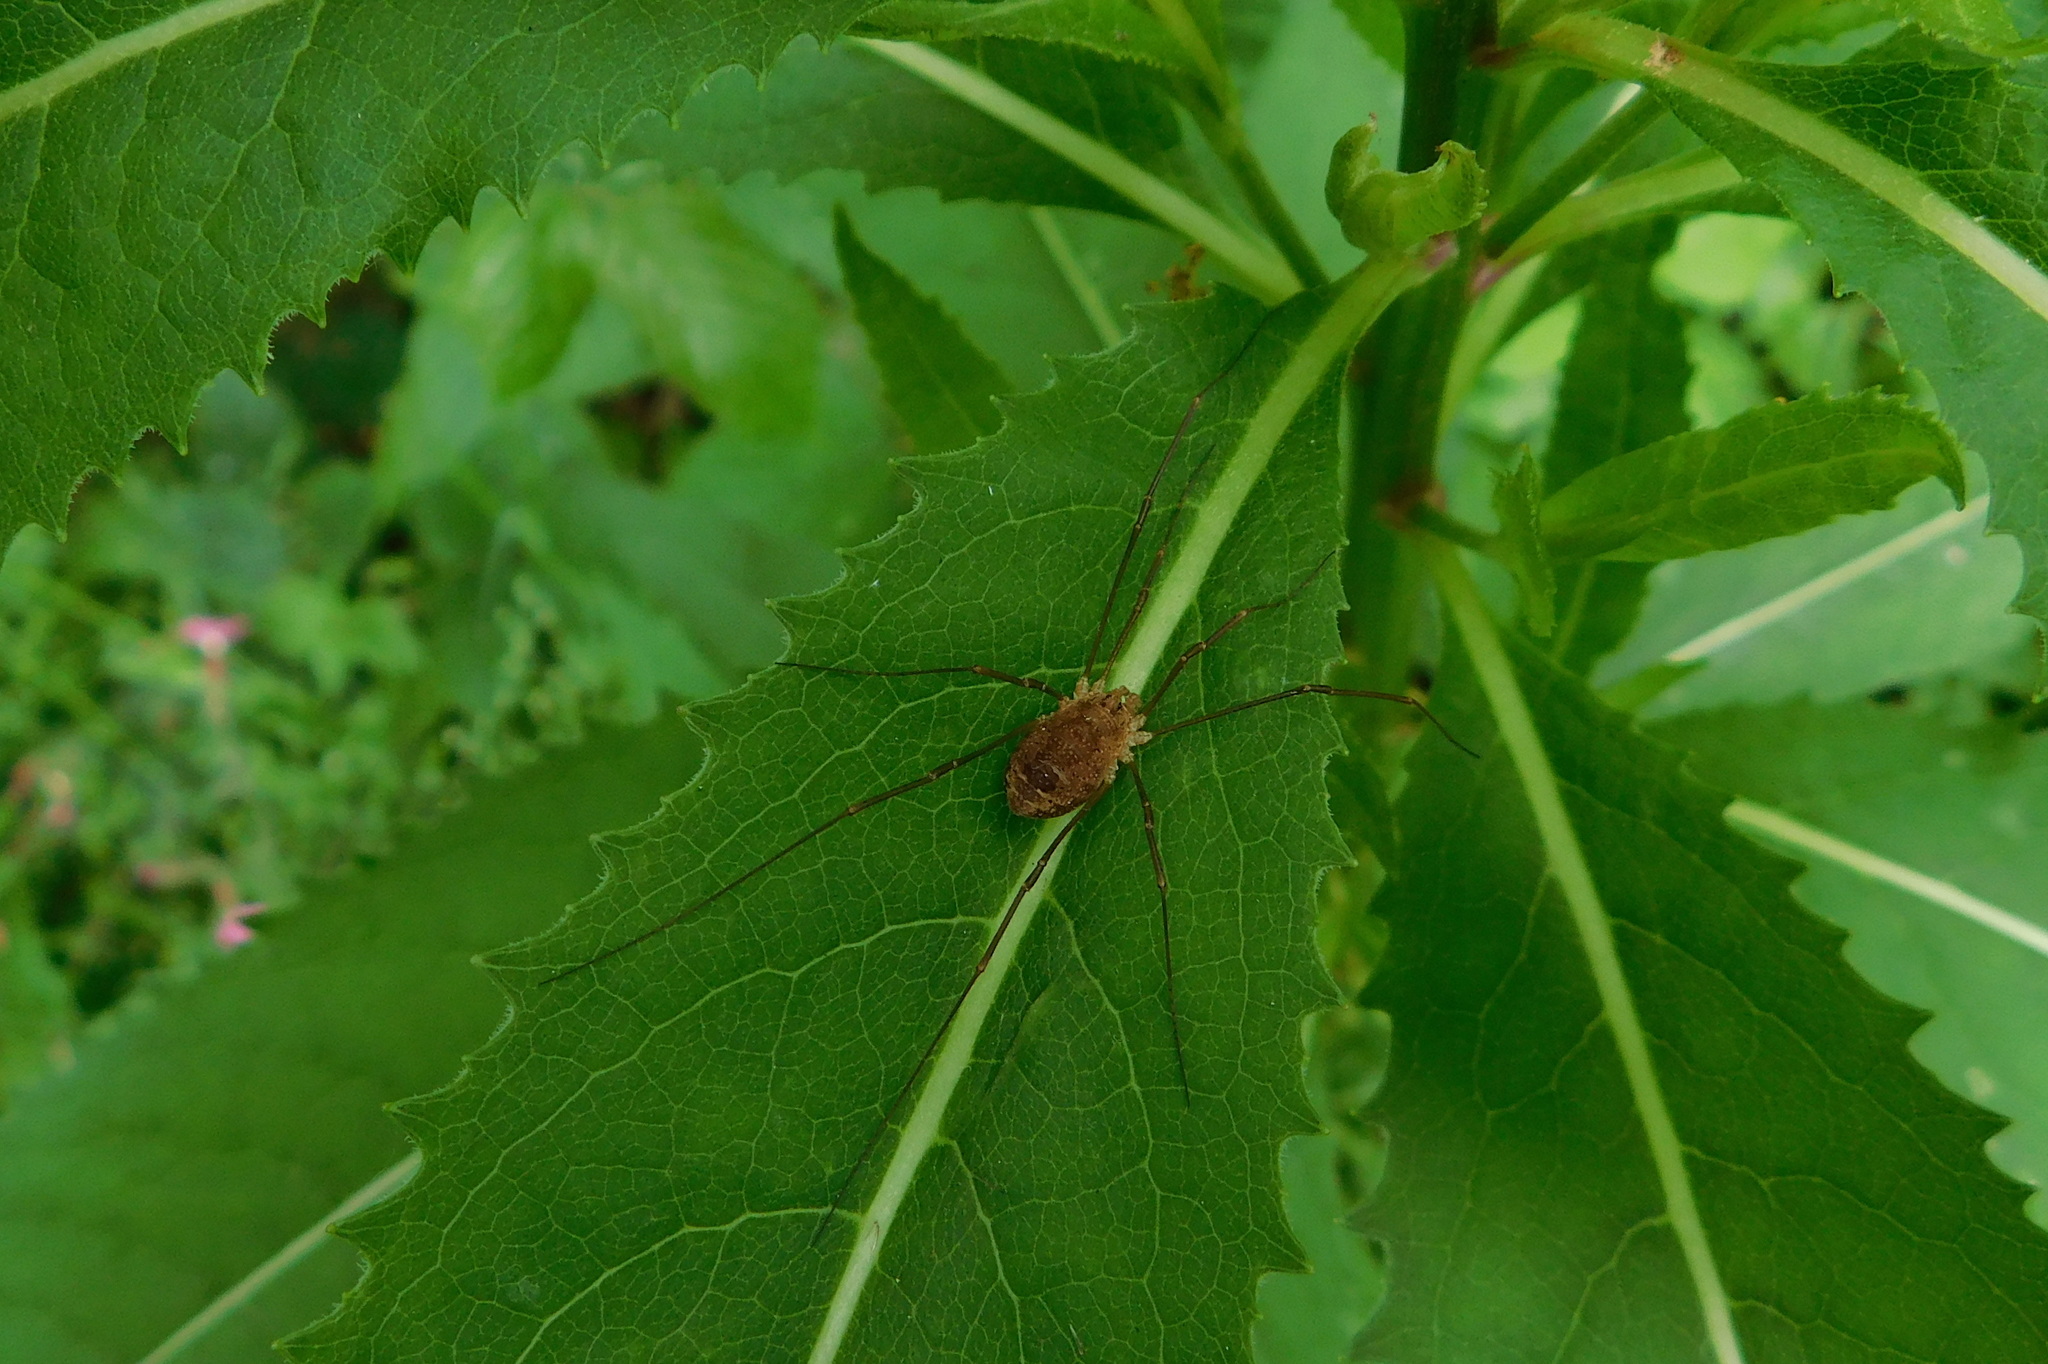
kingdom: Animalia
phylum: Arthropoda
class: Arachnida
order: Opiliones
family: Phalangiidae
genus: Rilaena
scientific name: Rilaena triangularis
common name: Spring harvestman
